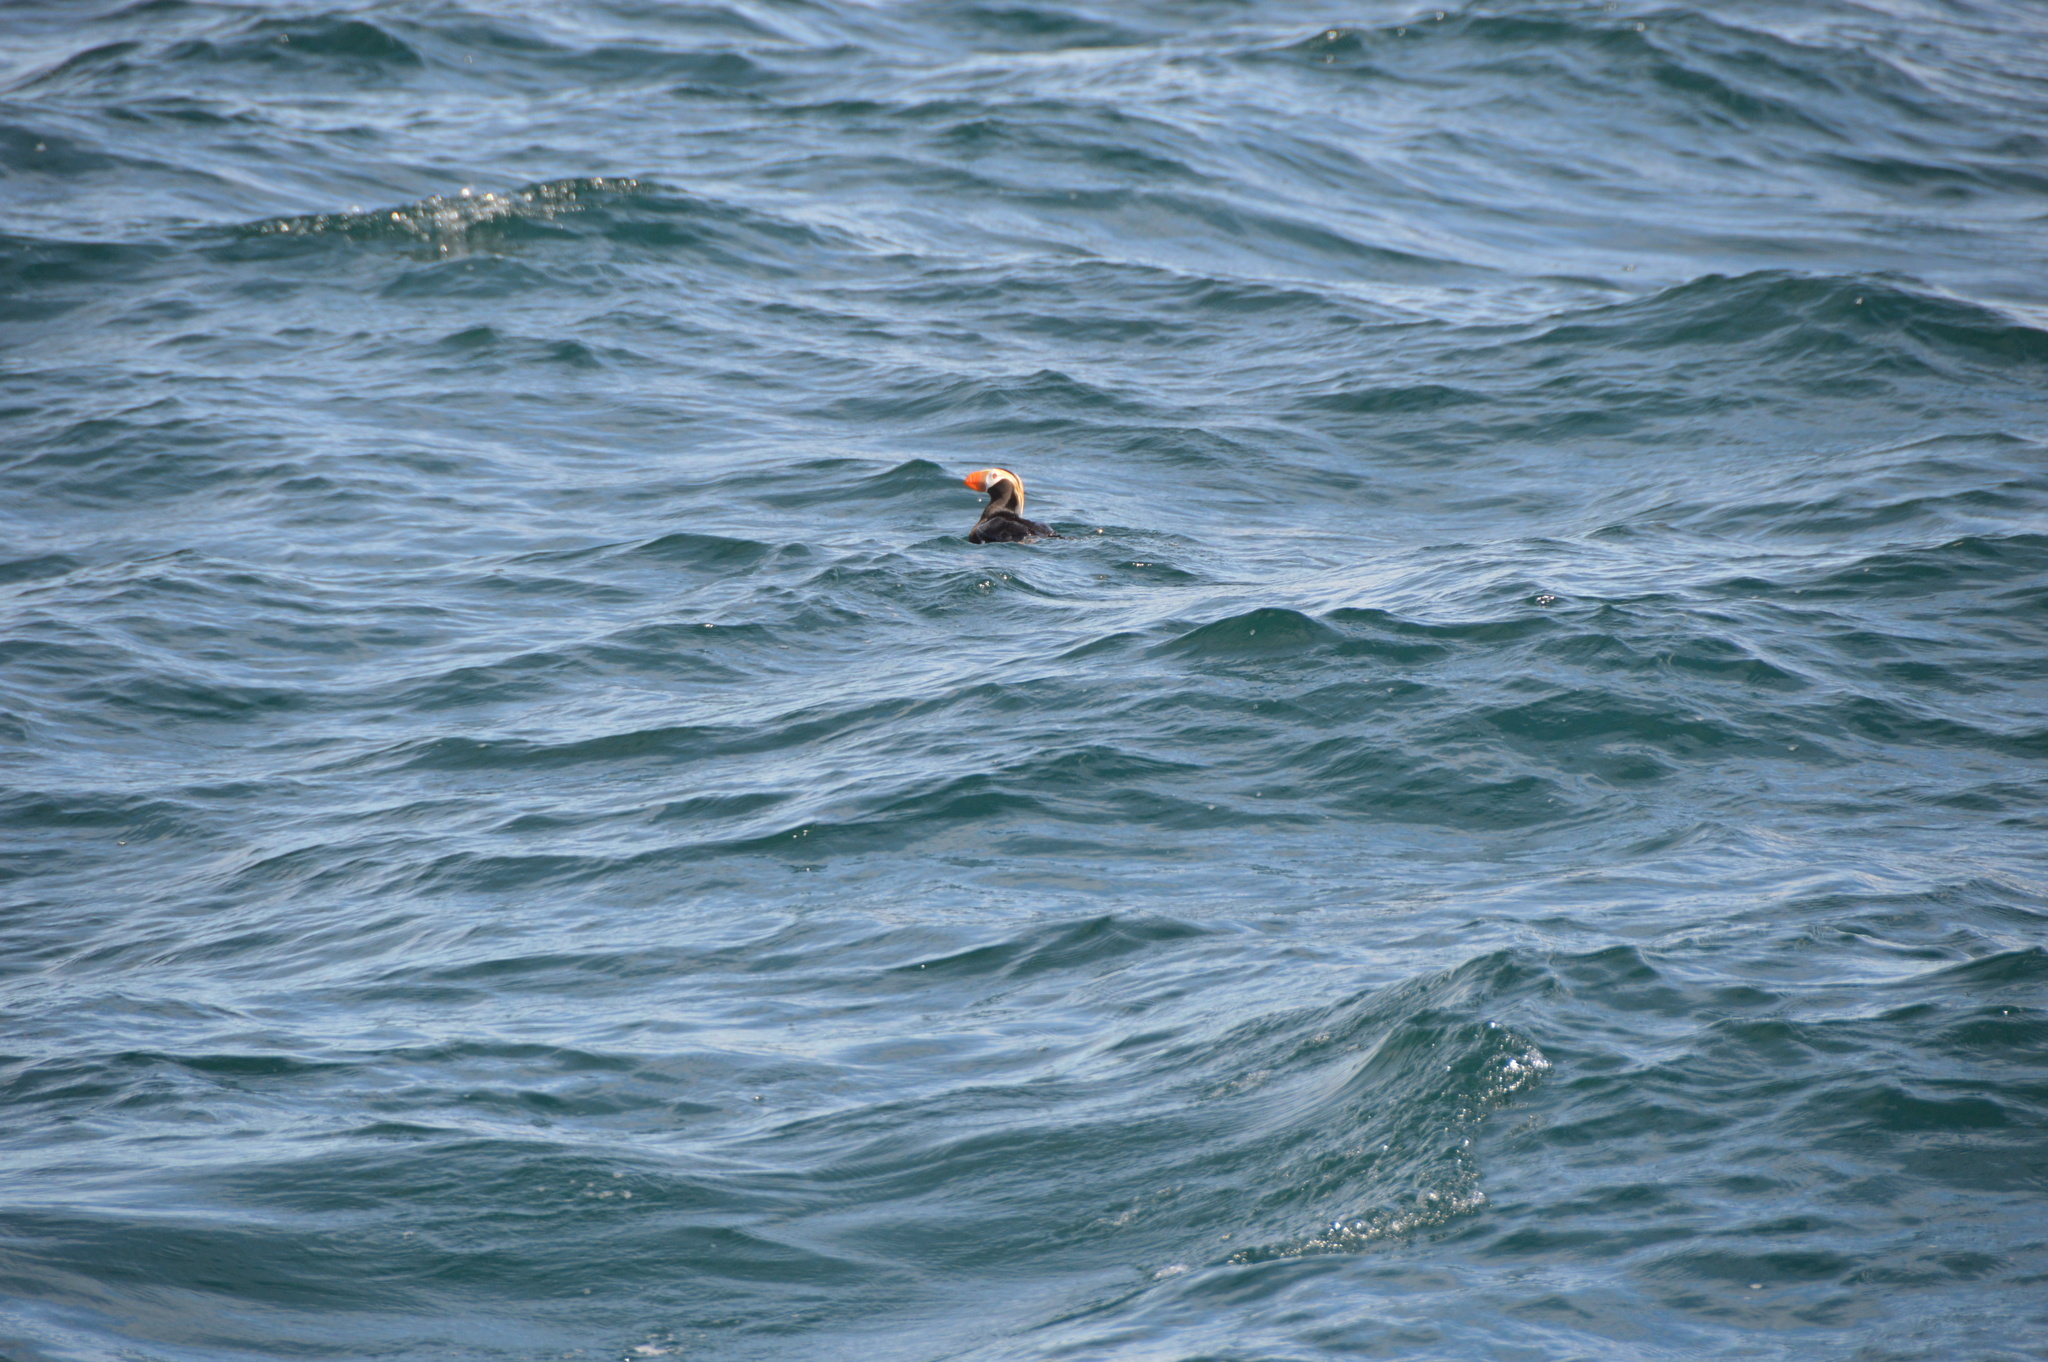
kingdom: Animalia
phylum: Chordata
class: Aves
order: Charadriiformes
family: Alcidae
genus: Fratercula
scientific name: Fratercula cirrhata
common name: Tufted puffin
